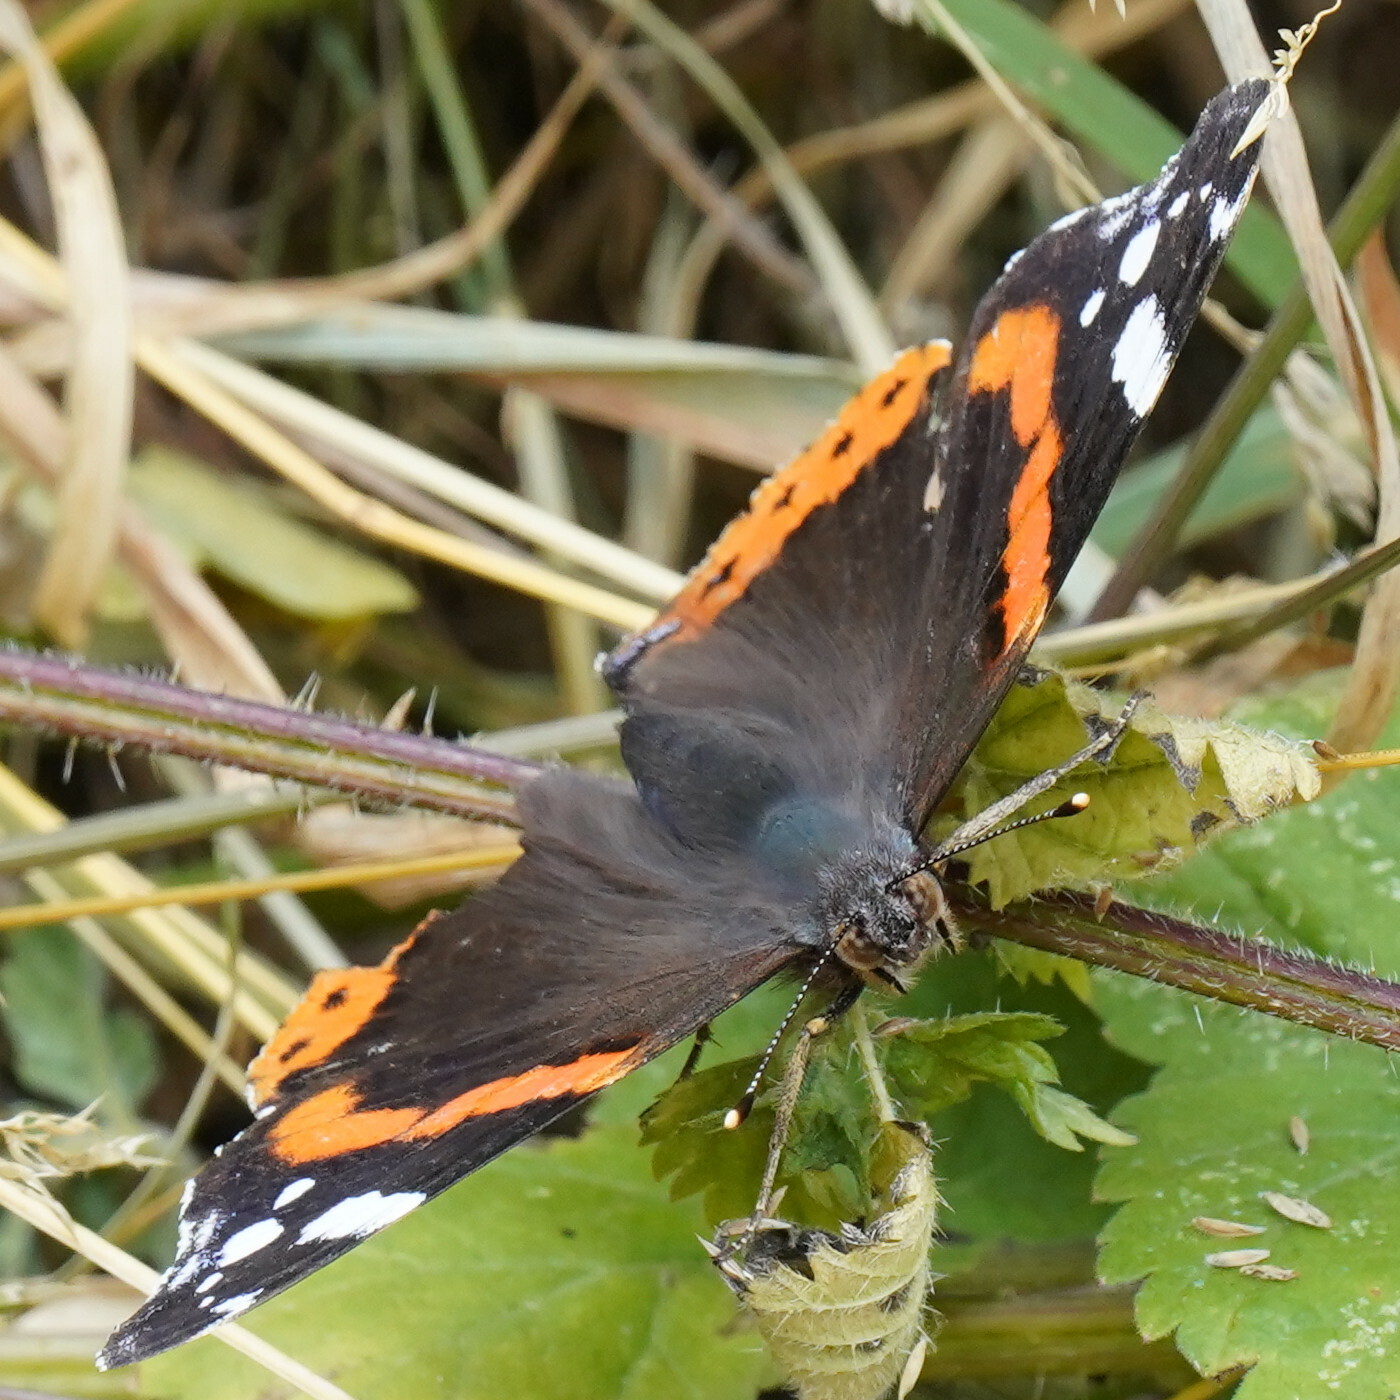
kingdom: Animalia
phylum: Arthropoda
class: Insecta
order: Lepidoptera
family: Nymphalidae
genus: Vanessa
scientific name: Vanessa atalanta
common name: Red admiral
